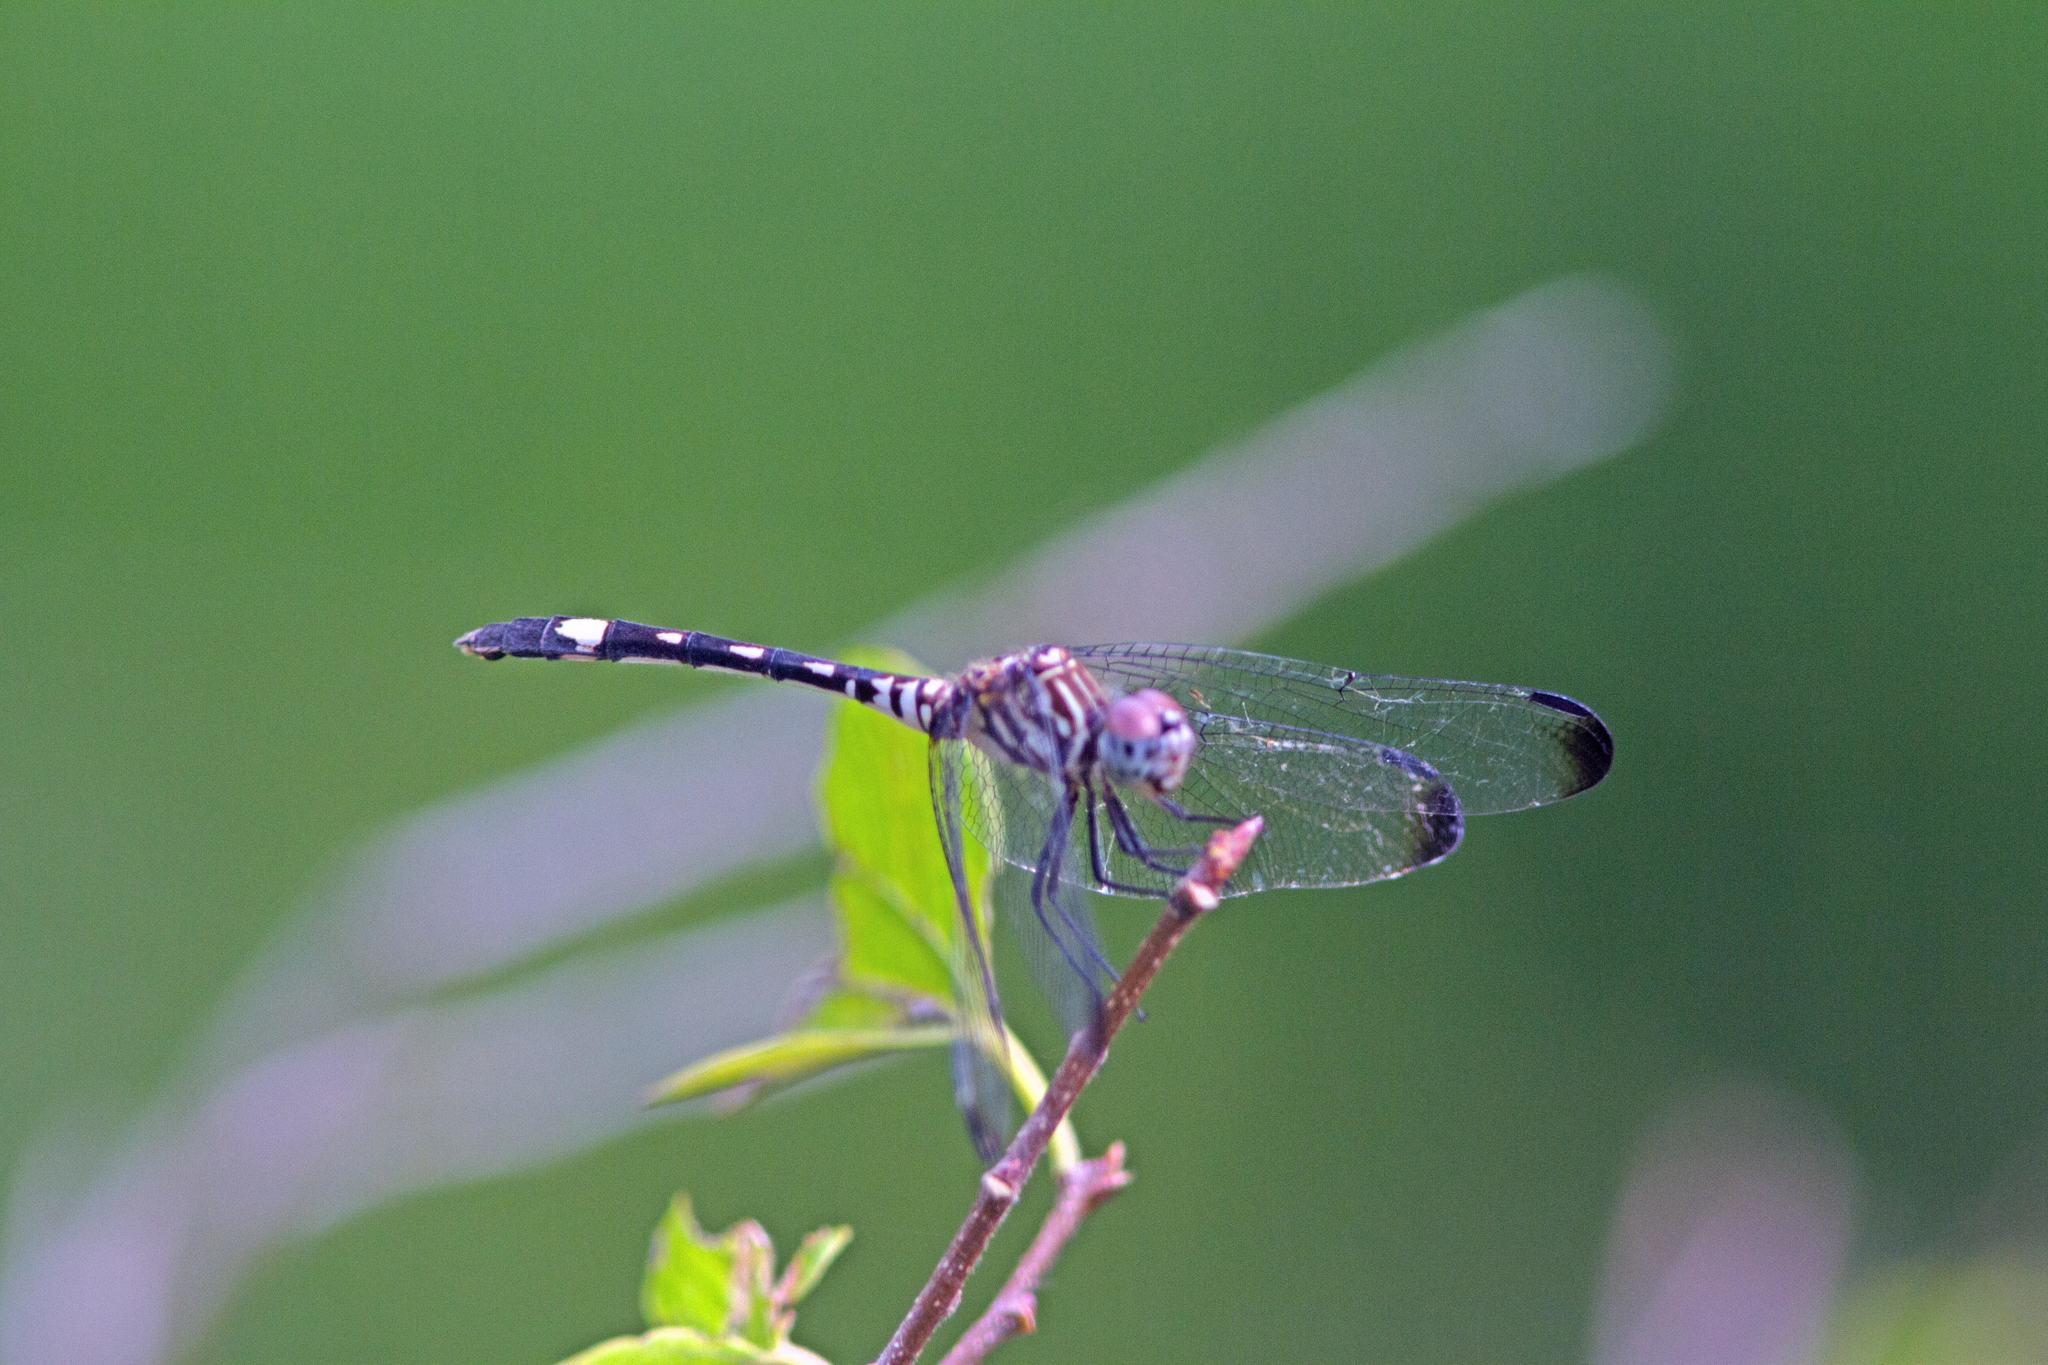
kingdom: Animalia
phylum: Arthropoda
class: Insecta
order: Odonata
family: Libellulidae
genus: Dythemis
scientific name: Dythemis velox
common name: Swift setwing
